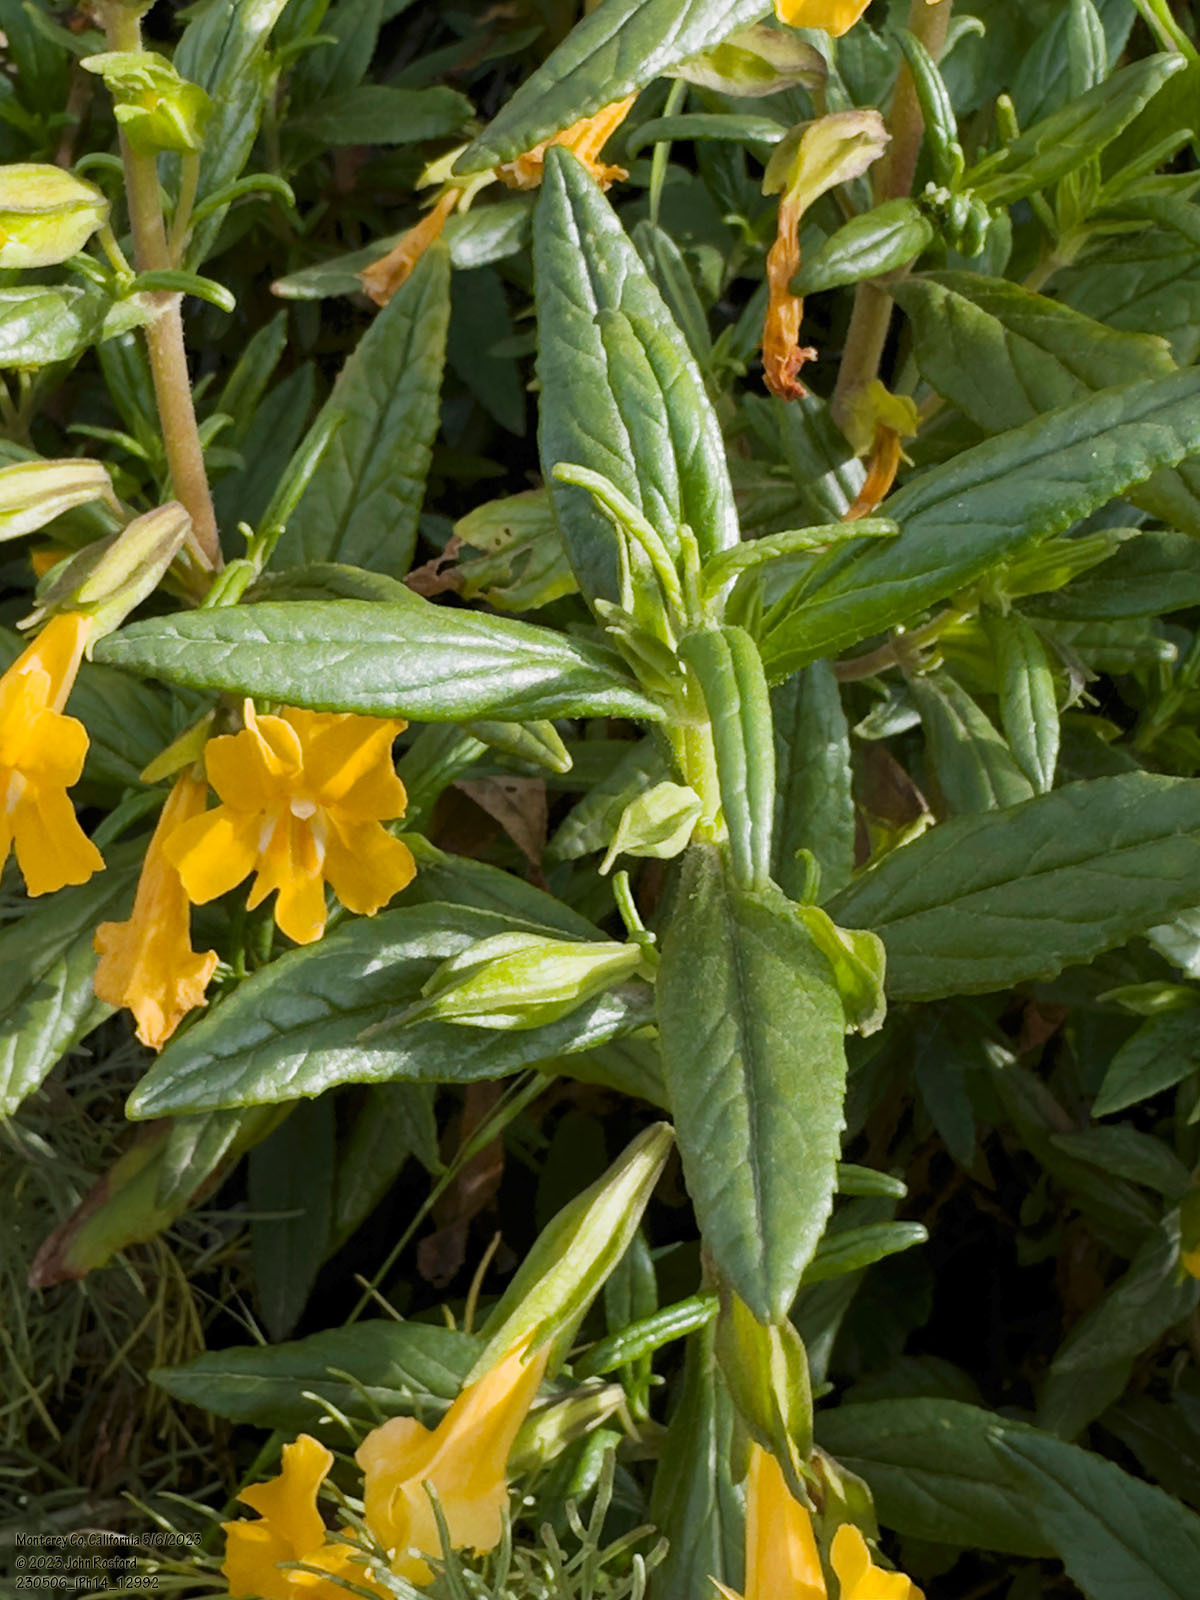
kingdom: Plantae
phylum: Tracheophyta
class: Magnoliopsida
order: Lamiales
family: Phrymaceae
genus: Diplacus
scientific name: Diplacus aurantiacus
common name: Bush monkey-flower
